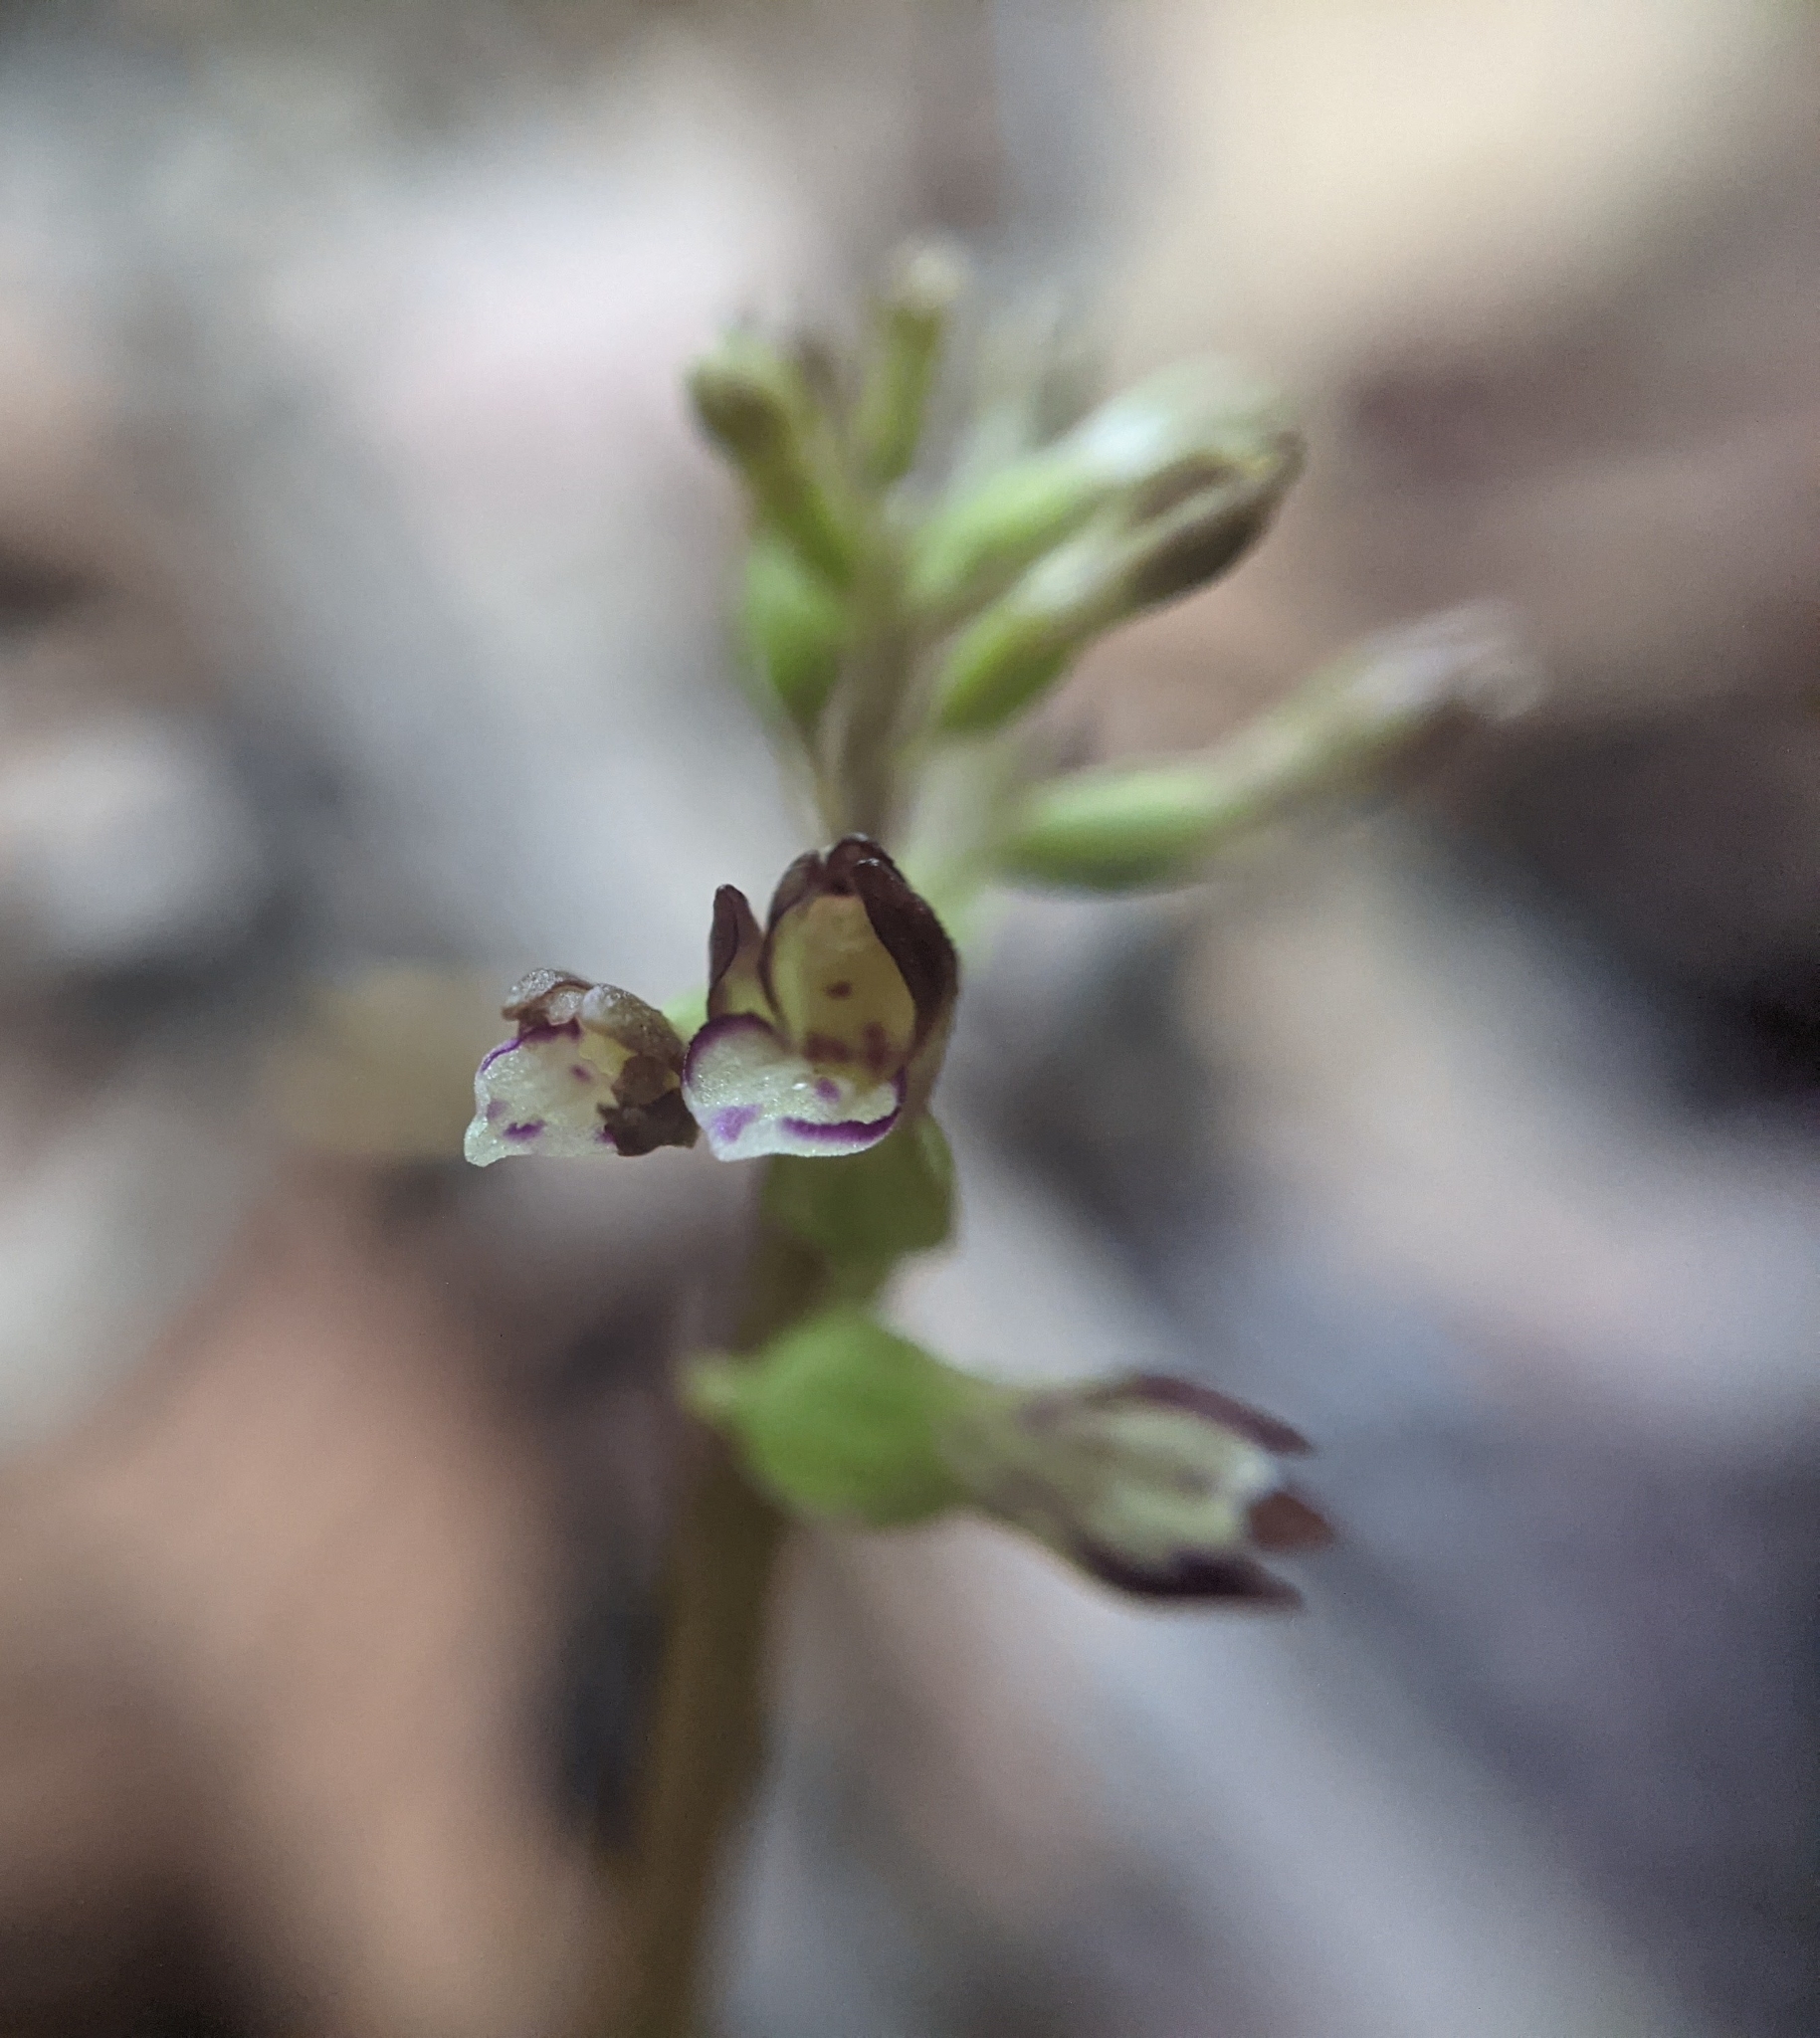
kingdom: Plantae
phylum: Tracheophyta
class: Liliopsida
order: Asparagales
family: Orchidaceae
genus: Corallorhiza
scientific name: Corallorhiza odontorhiza
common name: Autumn coralroot
